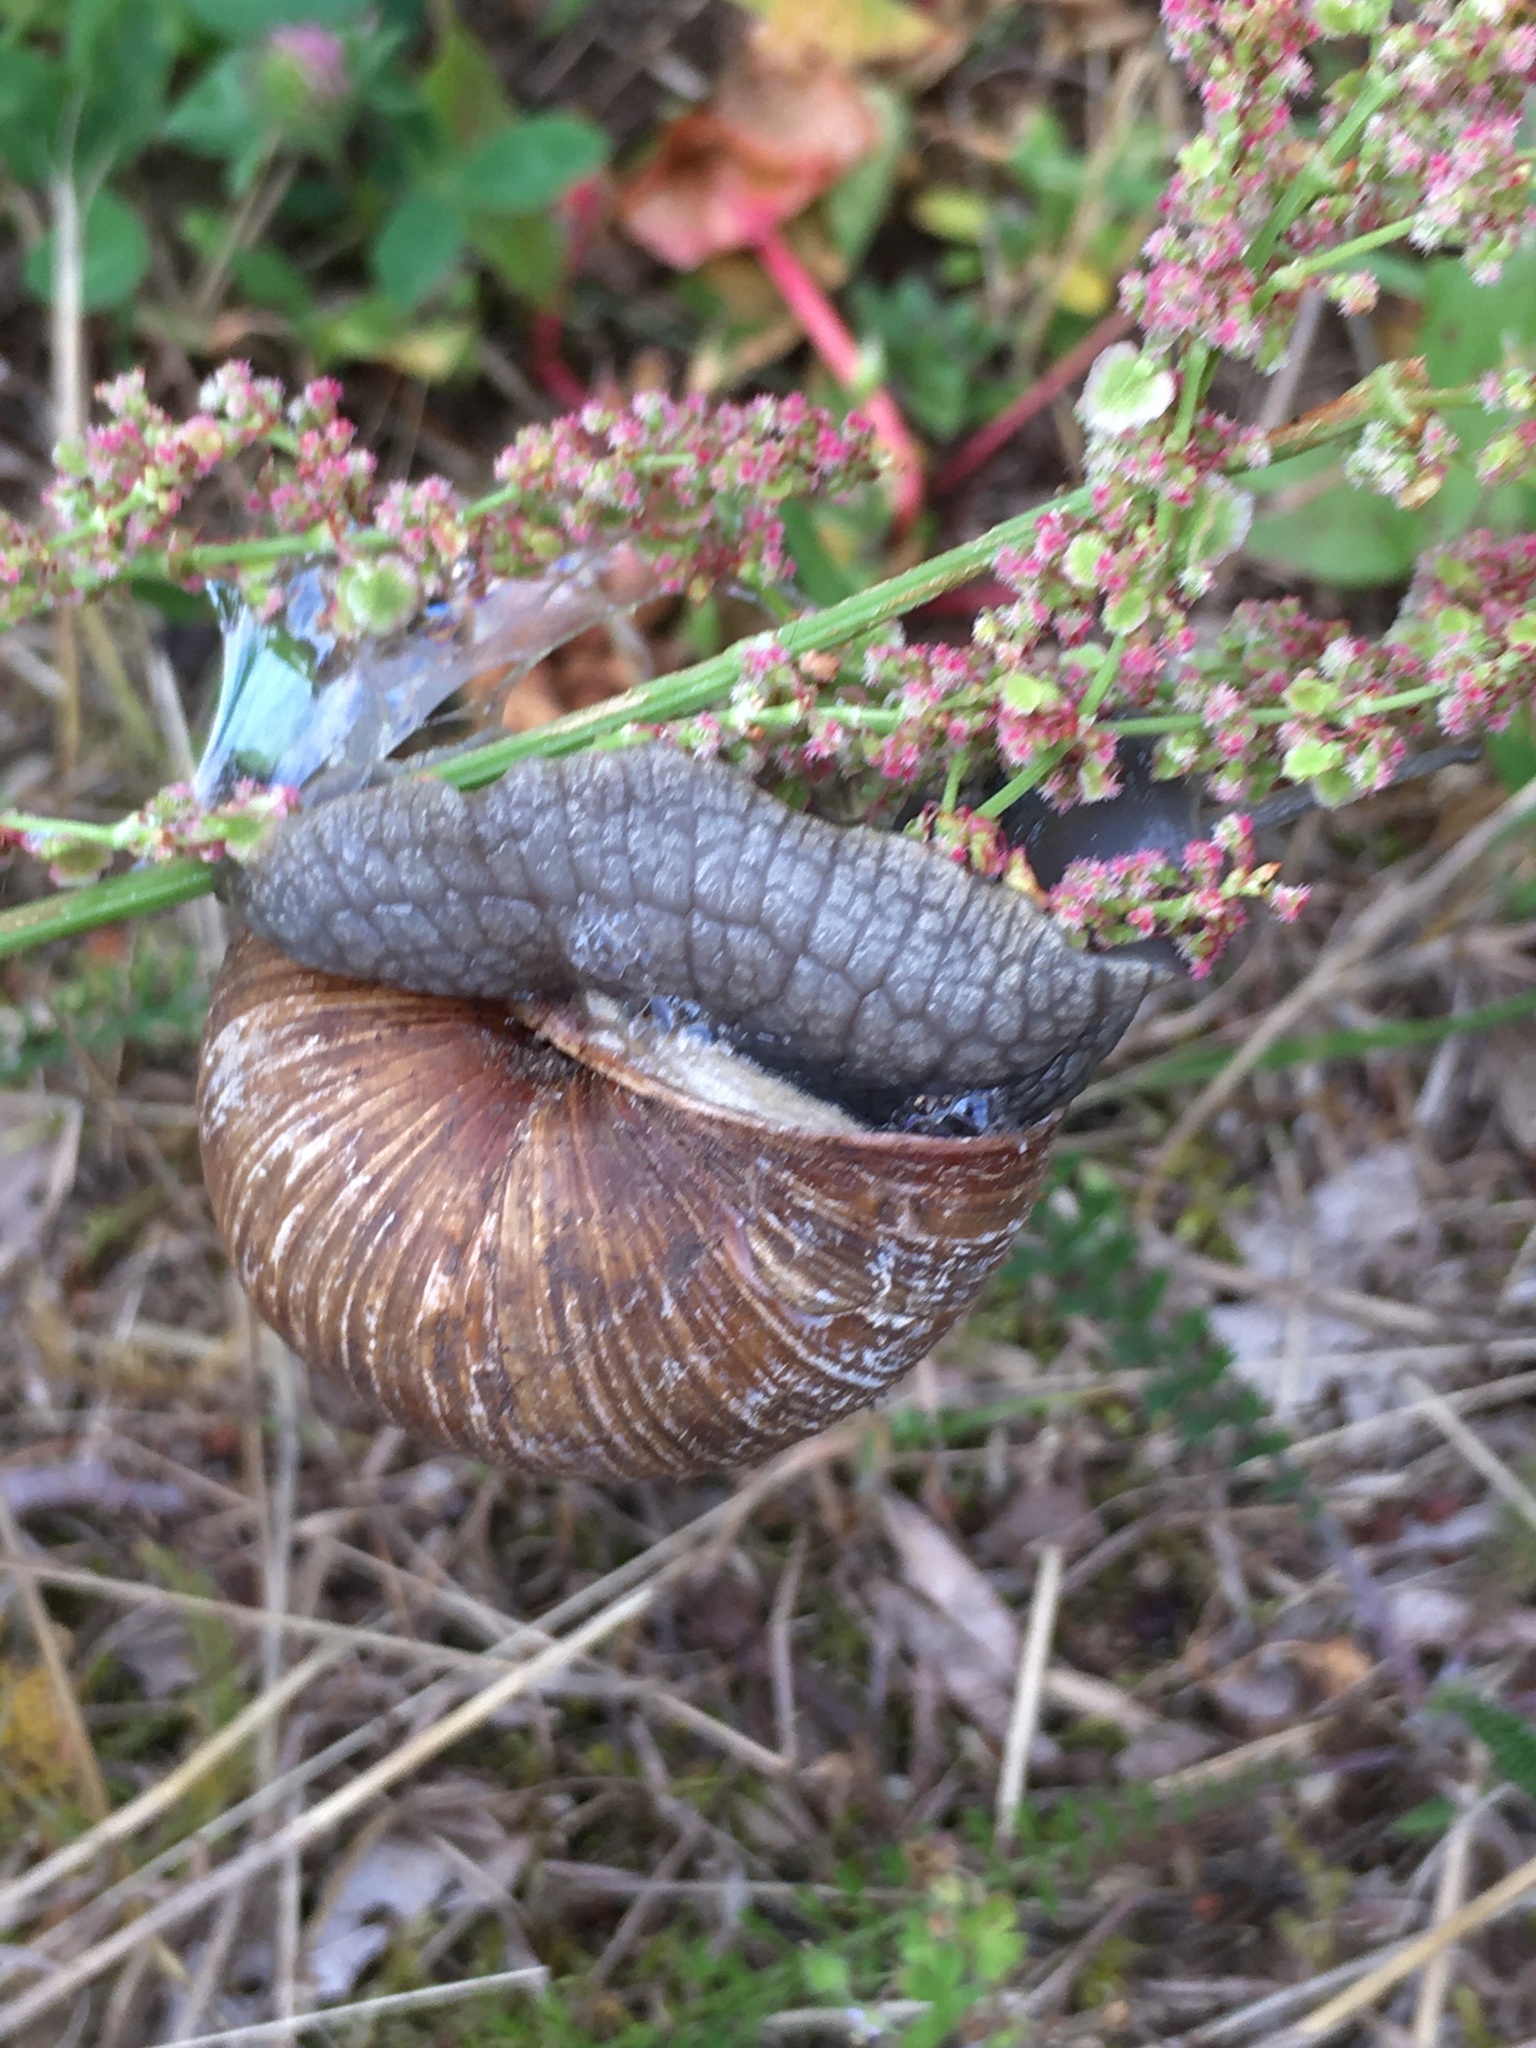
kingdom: Animalia
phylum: Mollusca
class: Gastropoda
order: Stylommatophora
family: Helicidae
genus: Helix
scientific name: Helix pomatia
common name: Roman snail
